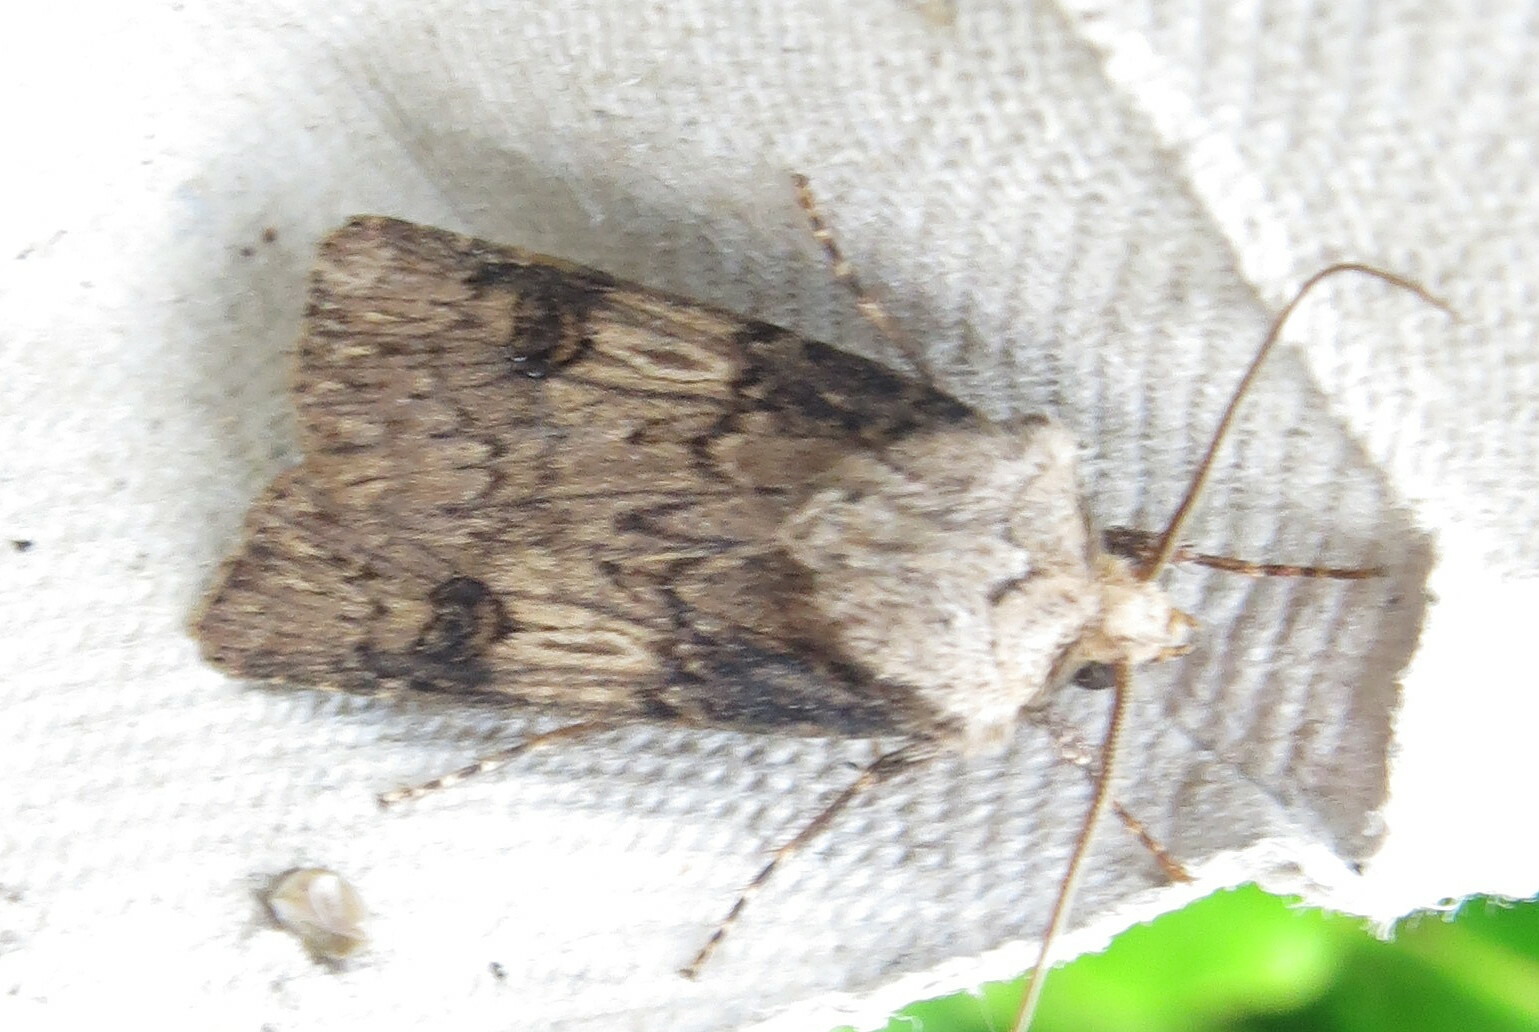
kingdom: Animalia
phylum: Arthropoda
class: Insecta
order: Lepidoptera
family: Noctuidae
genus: Agrotis
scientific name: Agrotis puta
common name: Shuttle-shaped dart
